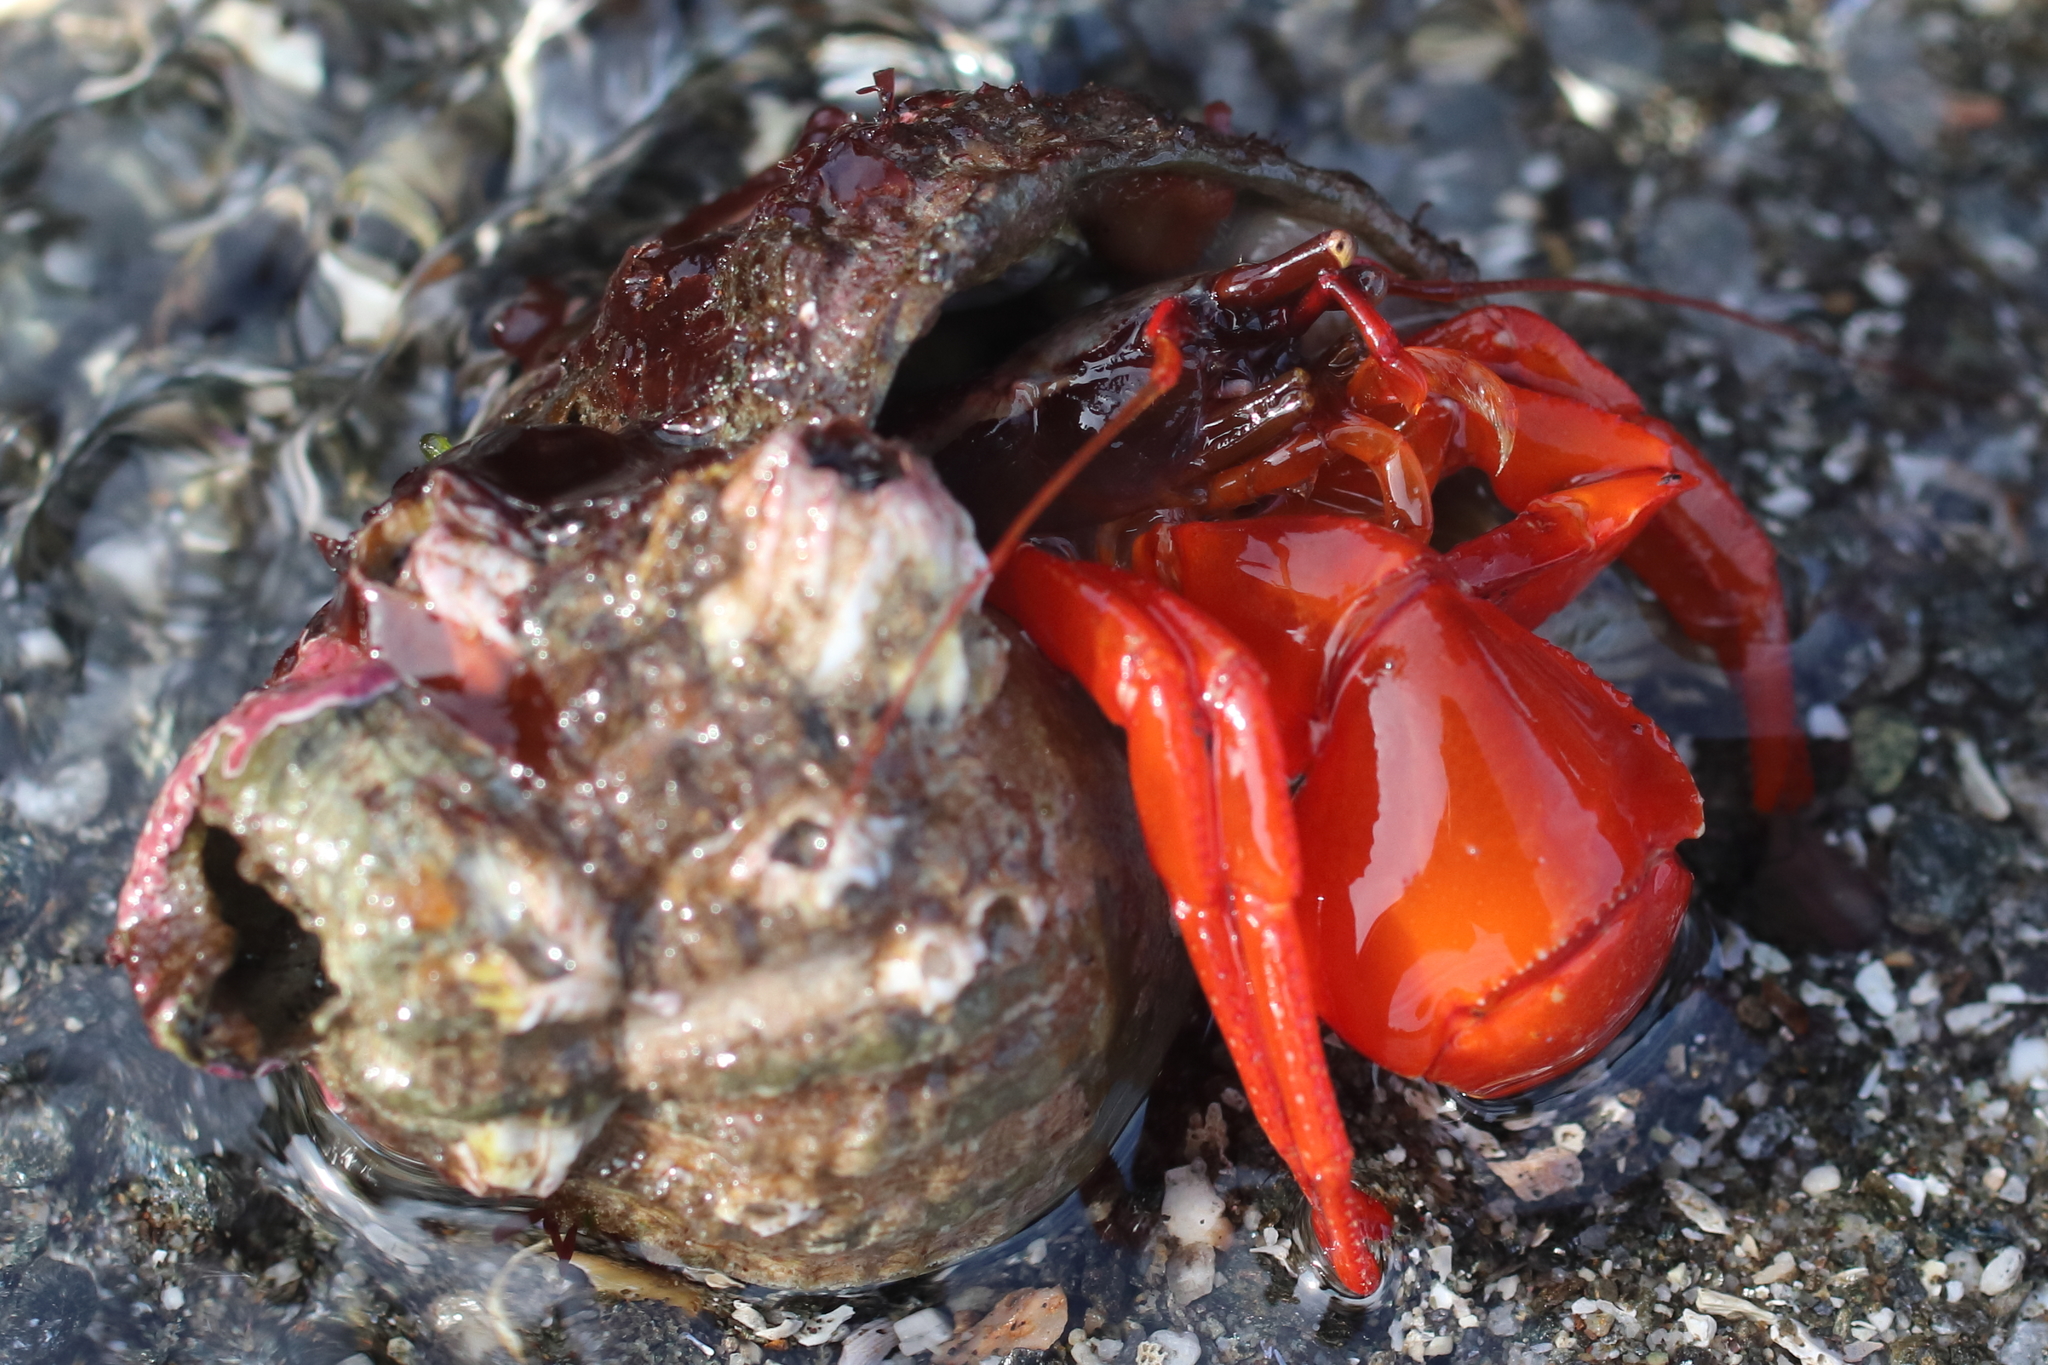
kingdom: Animalia
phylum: Arthropoda
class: Malacostraca
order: Decapoda
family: Paguridae
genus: Elassochirus
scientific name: Elassochirus gilli
